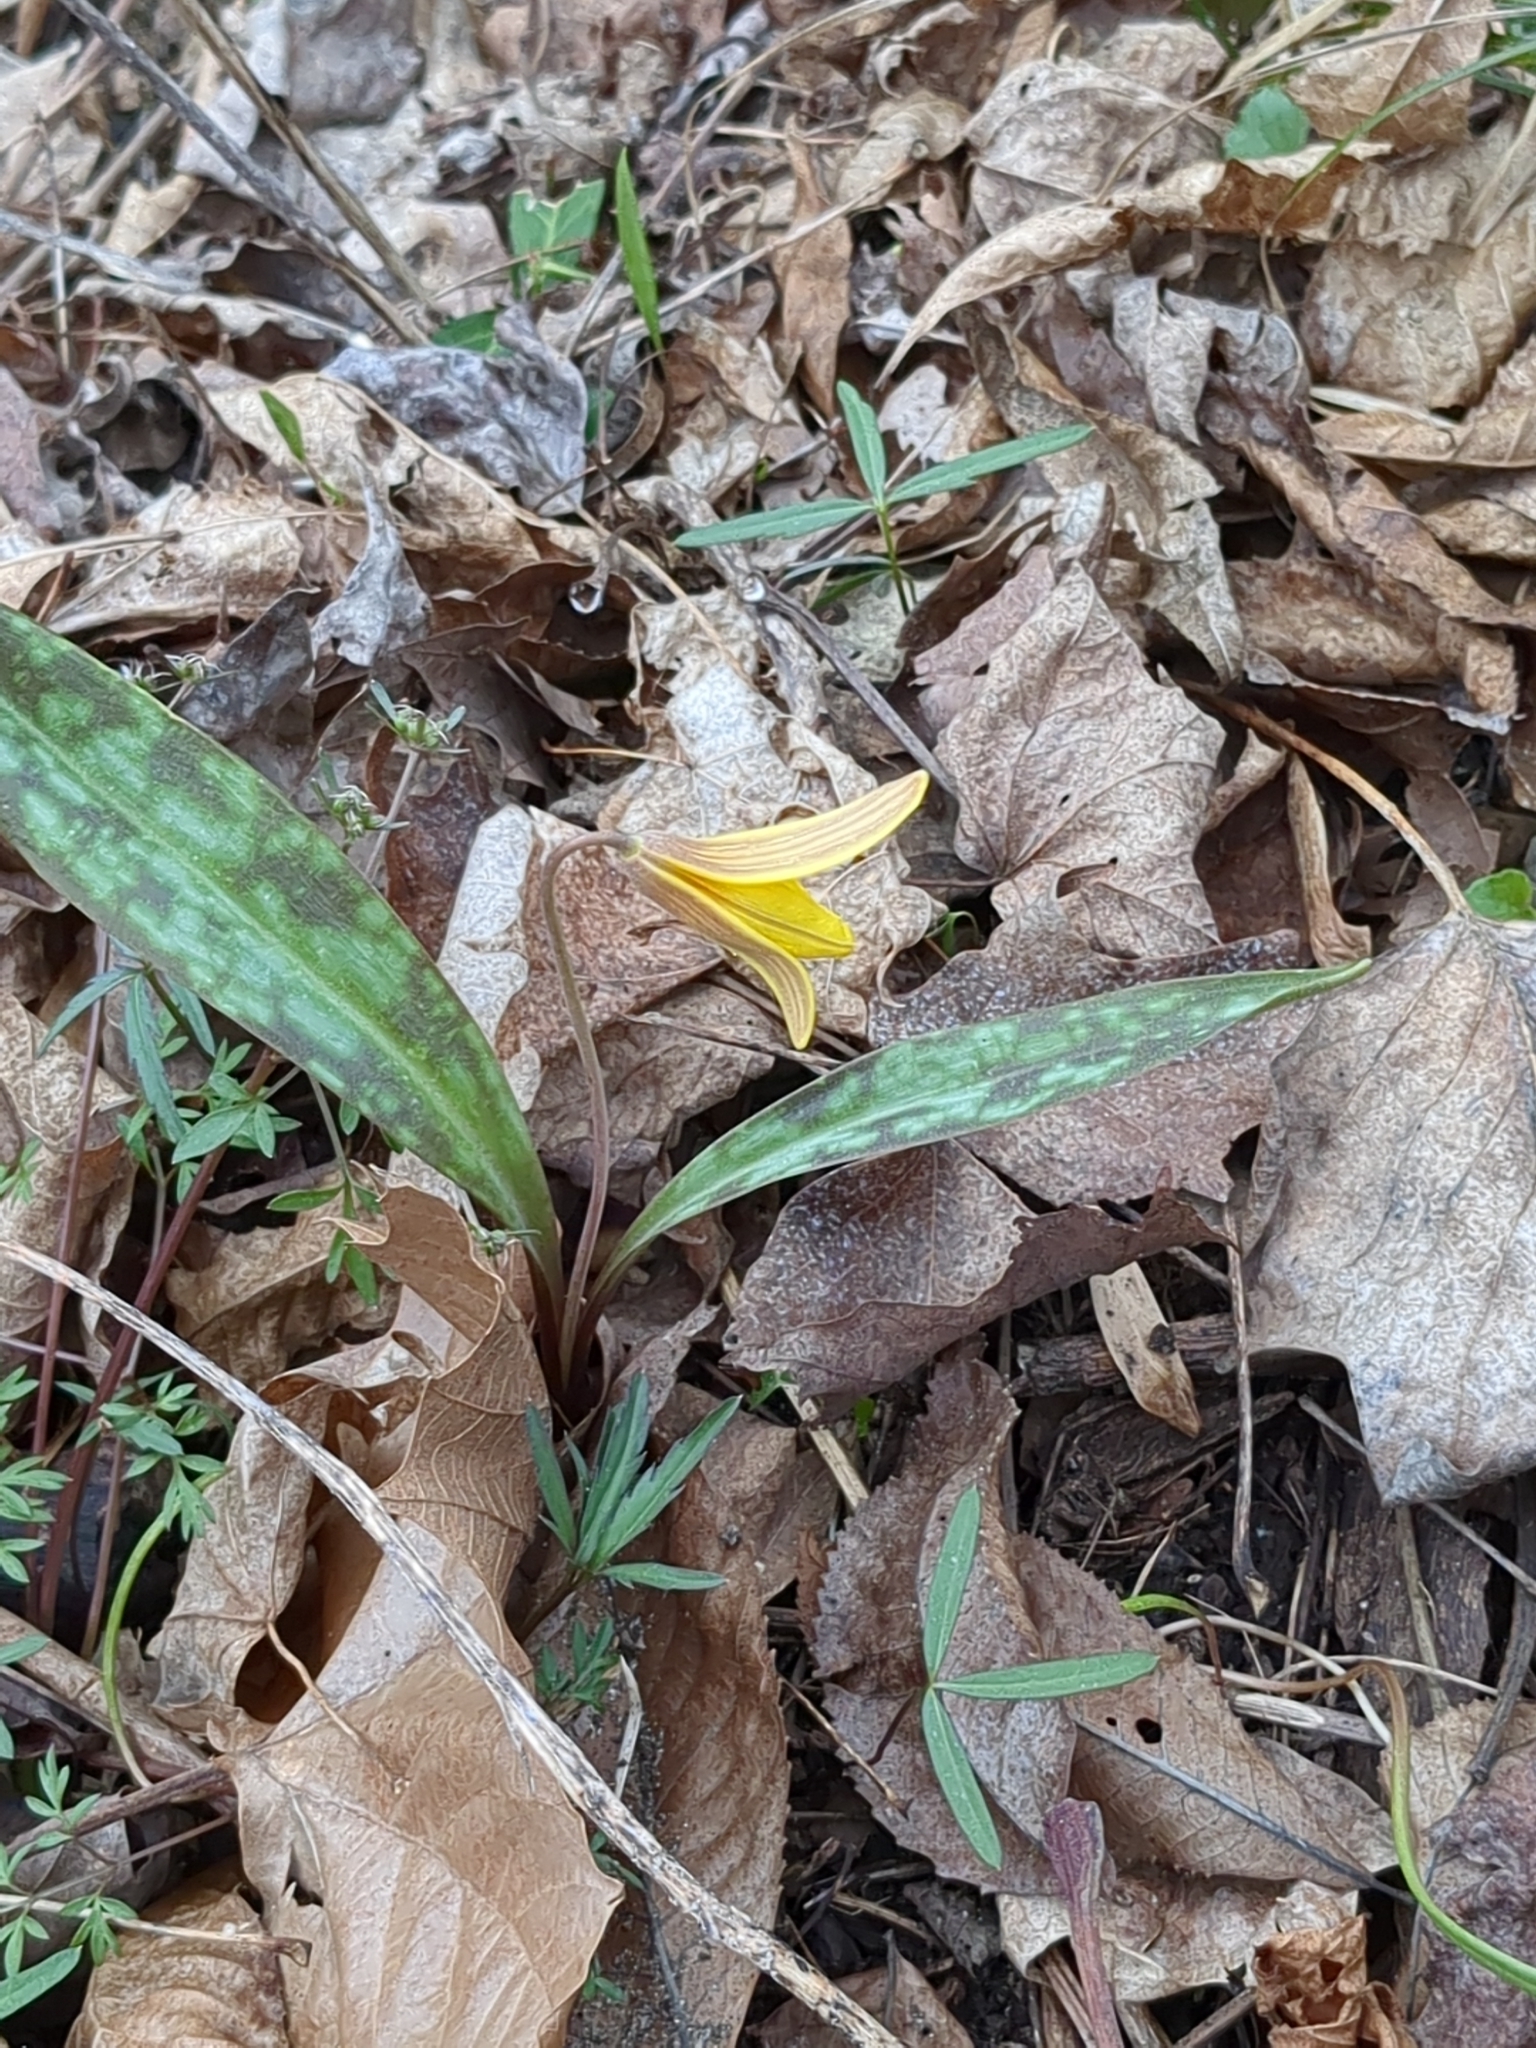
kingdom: Plantae
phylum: Tracheophyta
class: Liliopsida
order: Liliales
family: Liliaceae
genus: Erythronium
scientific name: Erythronium americanum
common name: Yellow adder's-tongue
